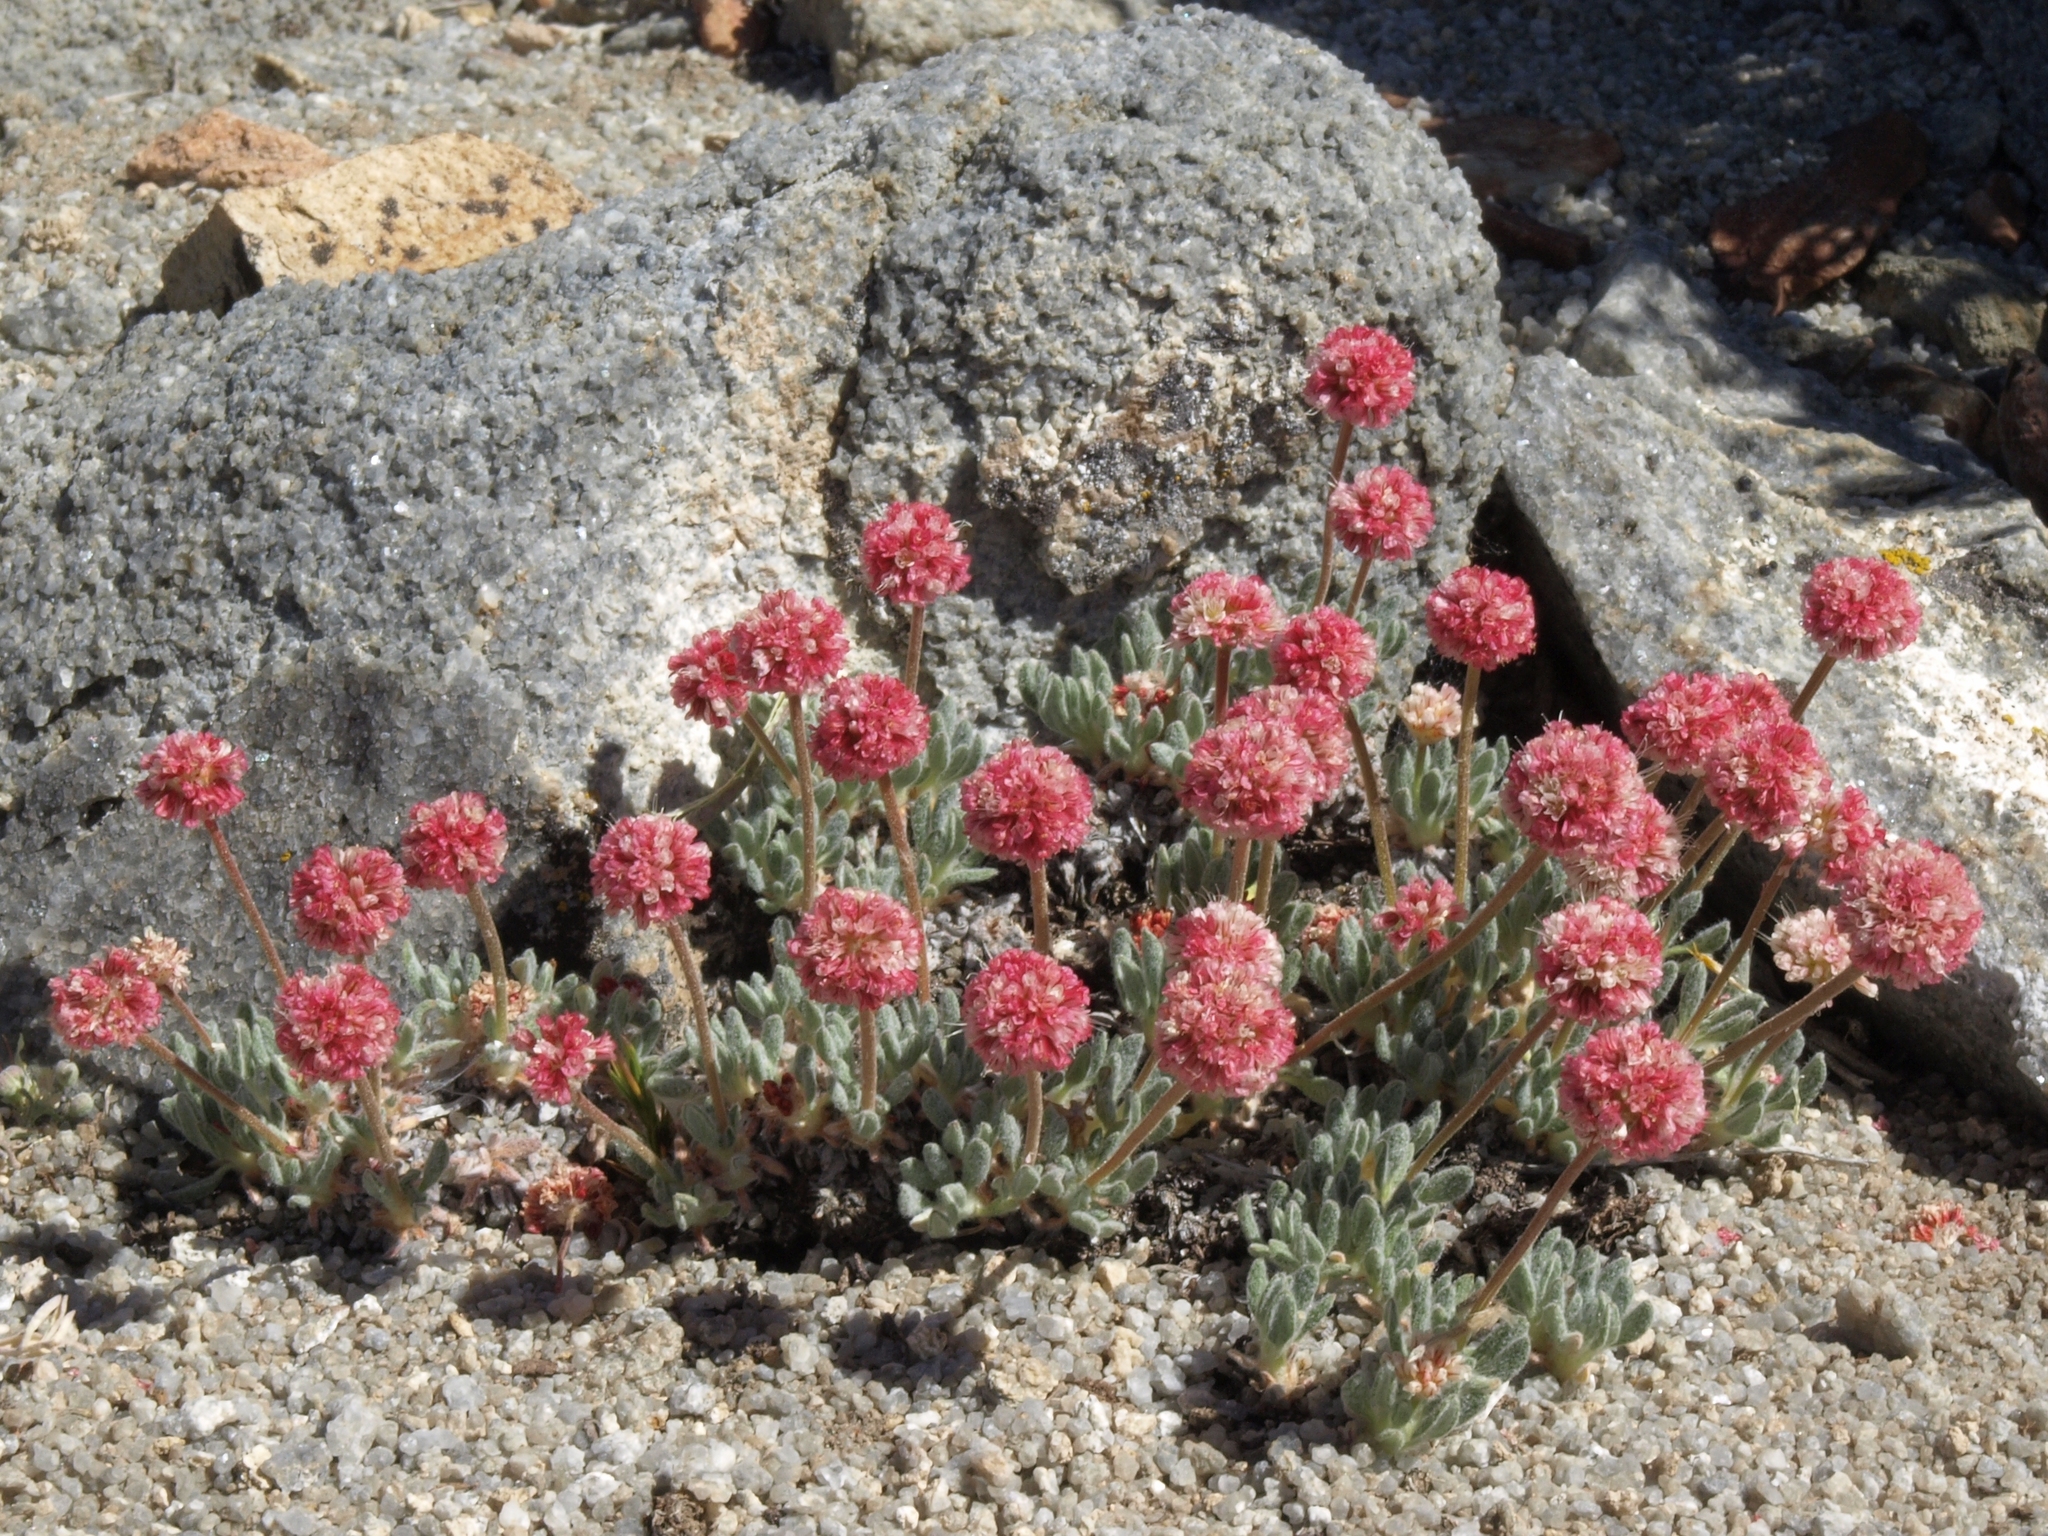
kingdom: Plantae
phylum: Tracheophyta
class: Magnoliopsida
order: Caryophyllales
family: Polygonaceae
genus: Eriogonum
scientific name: Eriogonum gracilipes
